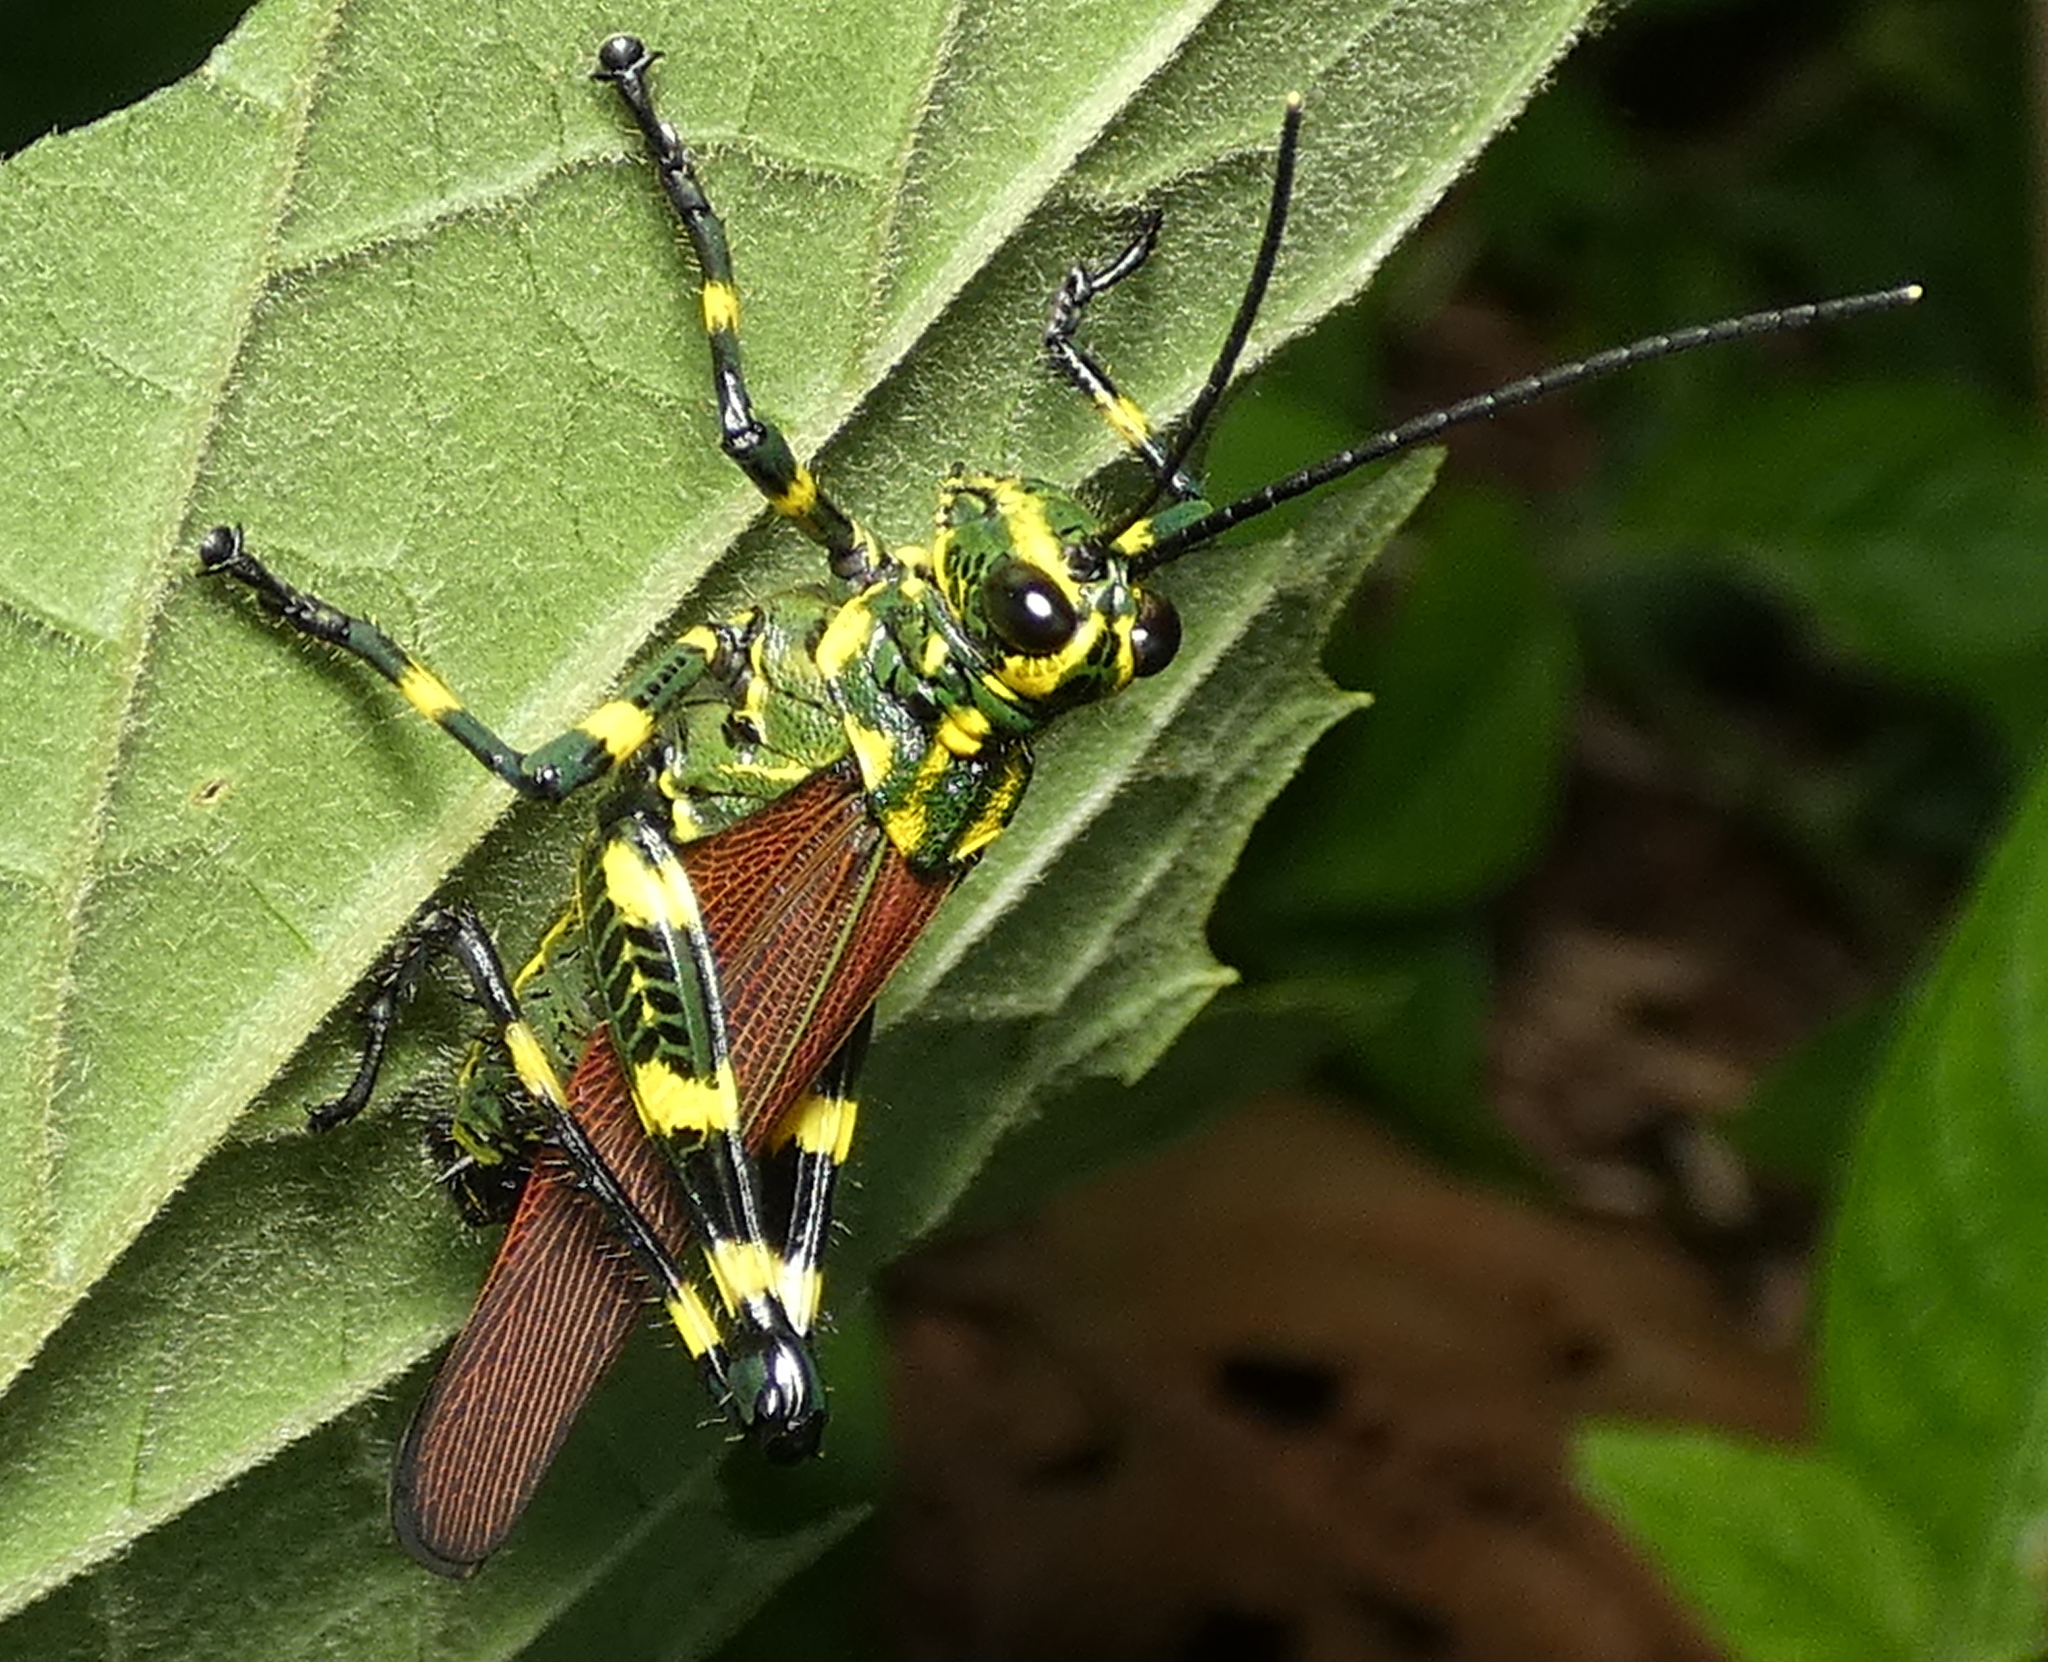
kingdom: Animalia
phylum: Arthropoda
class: Insecta
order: Orthoptera
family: Romaleidae
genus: Chromacris
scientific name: Chromacris speciosa
